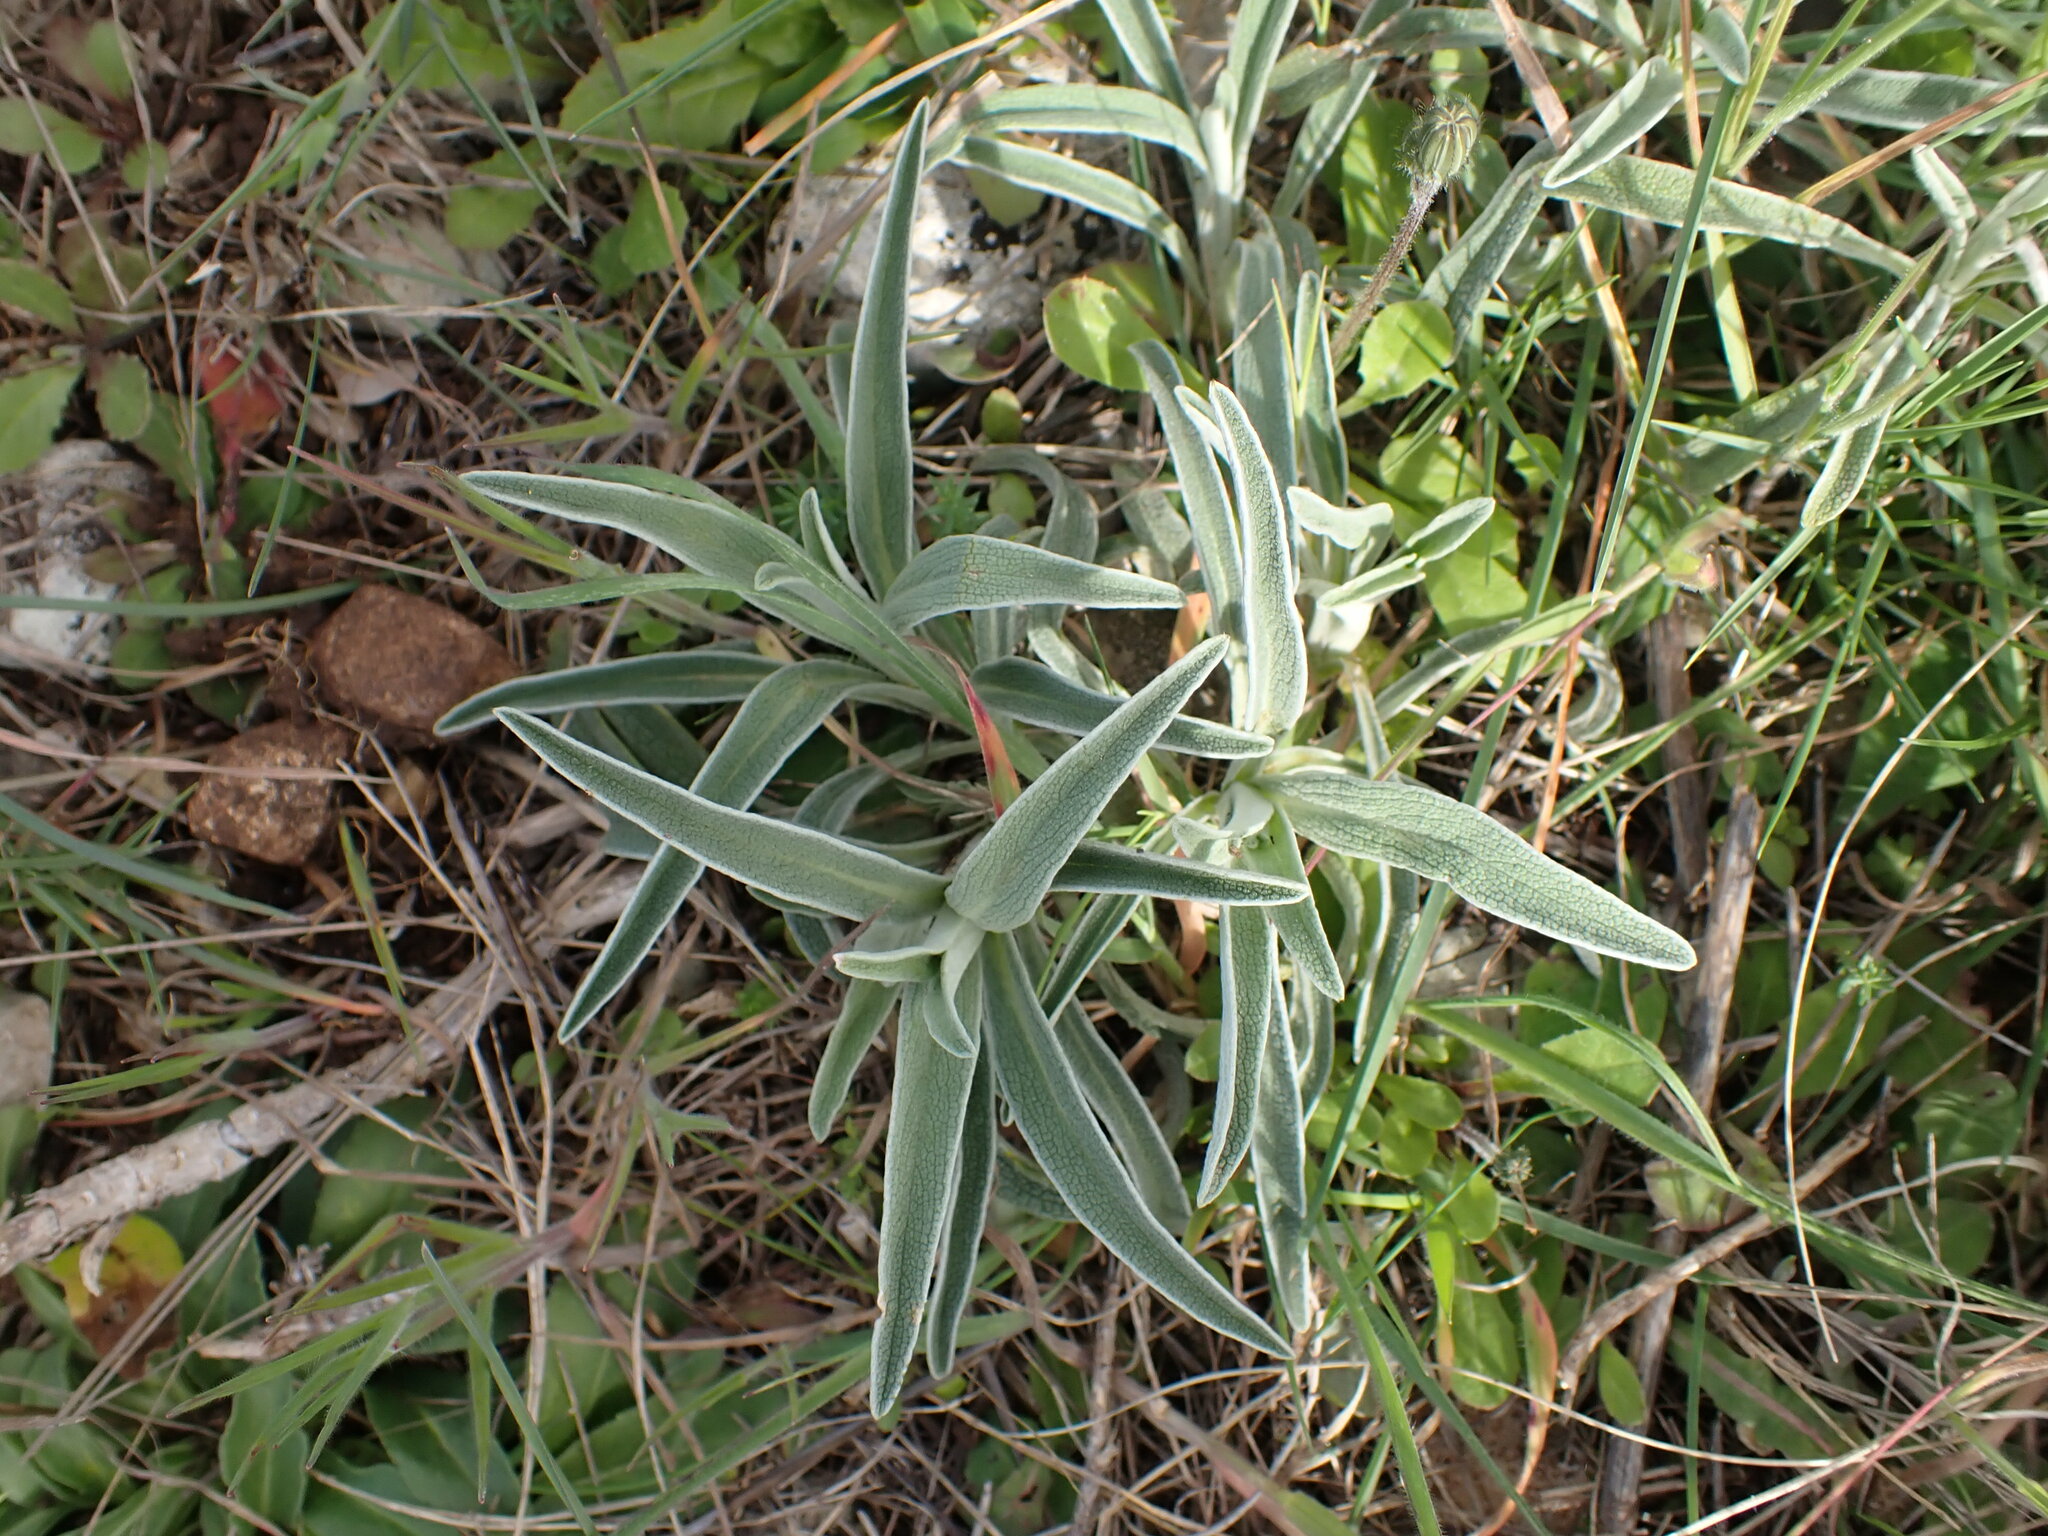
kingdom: Plantae
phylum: Tracheophyta
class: Magnoliopsida
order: Lamiales
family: Lamiaceae
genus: Phlomis
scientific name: Phlomis lychnitis
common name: Lampwickplant
